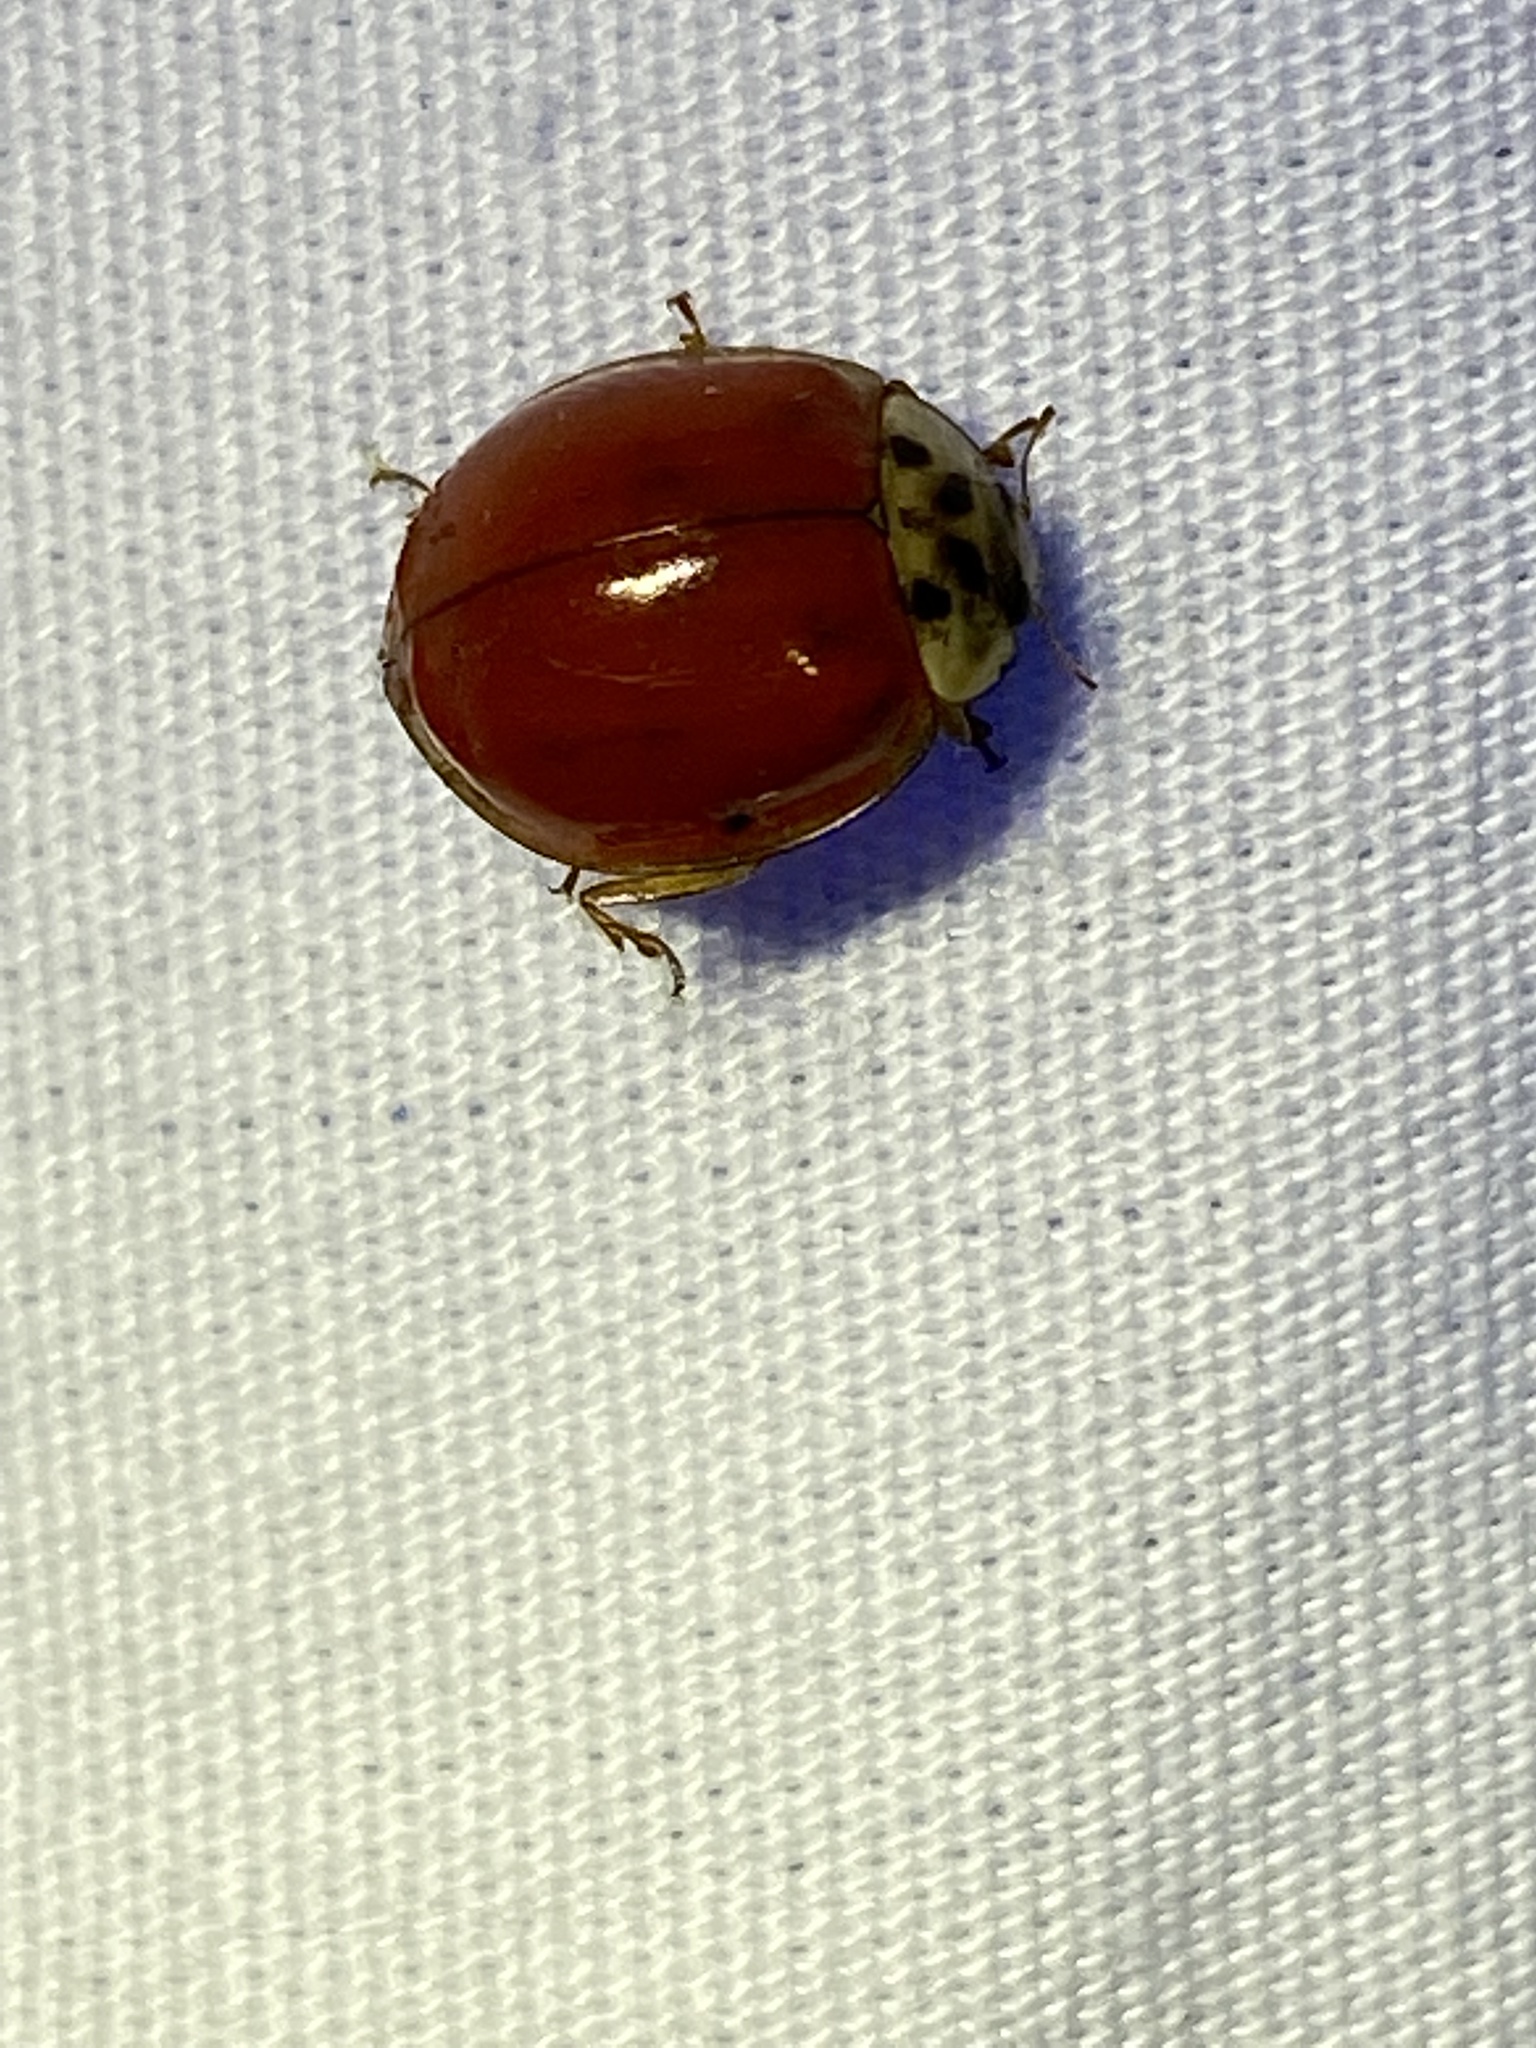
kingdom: Animalia
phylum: Arthropoda
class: Insecta
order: Coleoptera
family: Coccinellidae
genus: Harmonia
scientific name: Harmonia axyridis
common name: Harlequin ladybird
